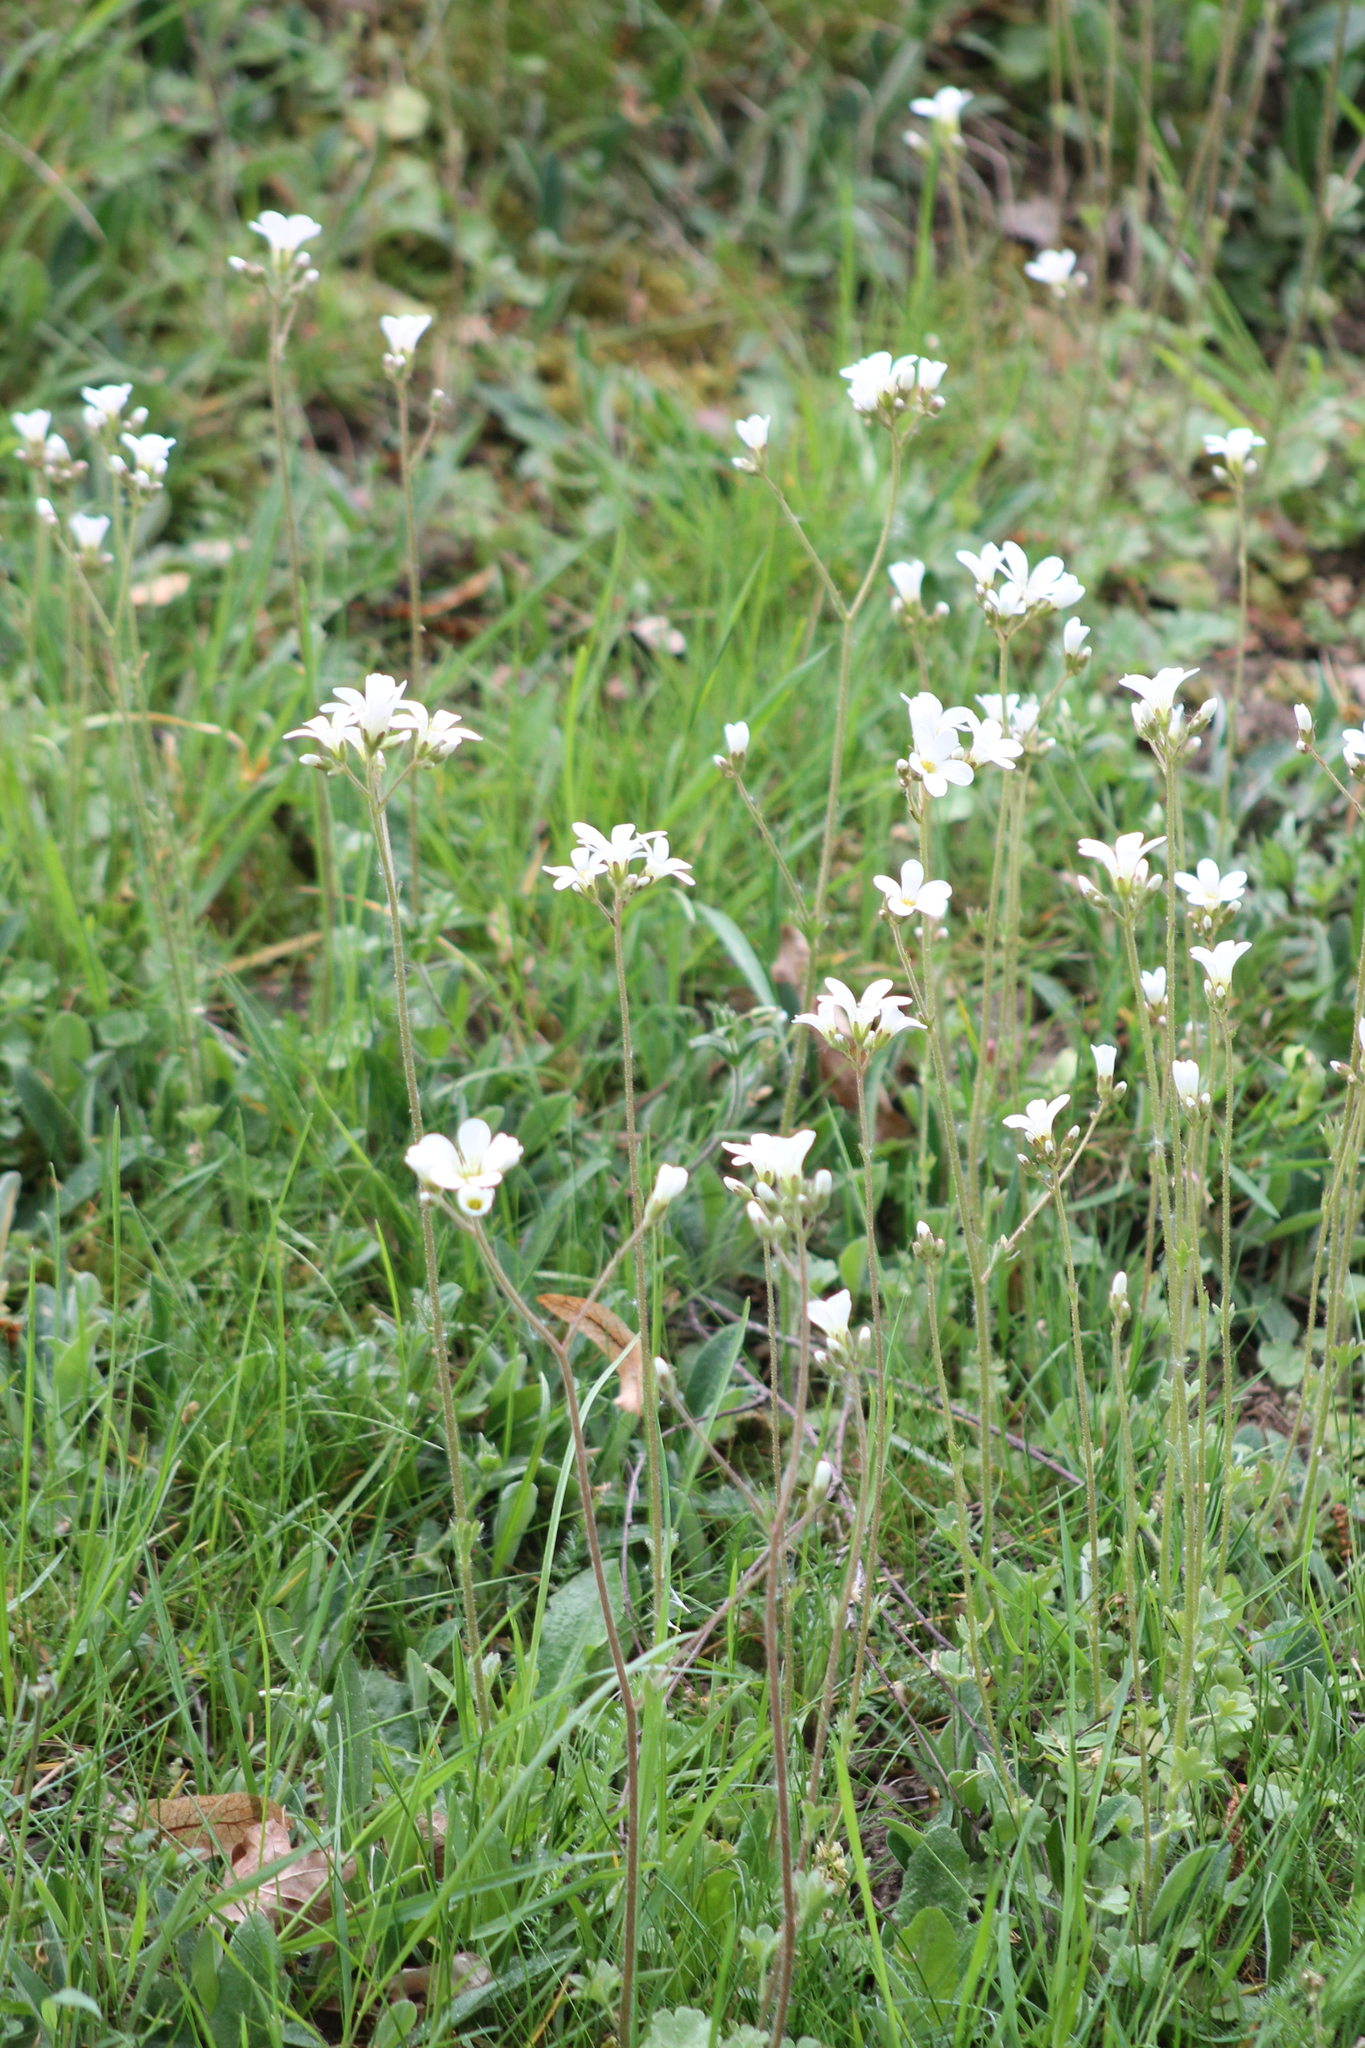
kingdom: Plantae
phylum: Tracheophyta
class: Magnoliopsida
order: Saxifragales
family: Saxifragaceae
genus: Saxifraga
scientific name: Saxifraga granulata
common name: Meadow saxifrage
